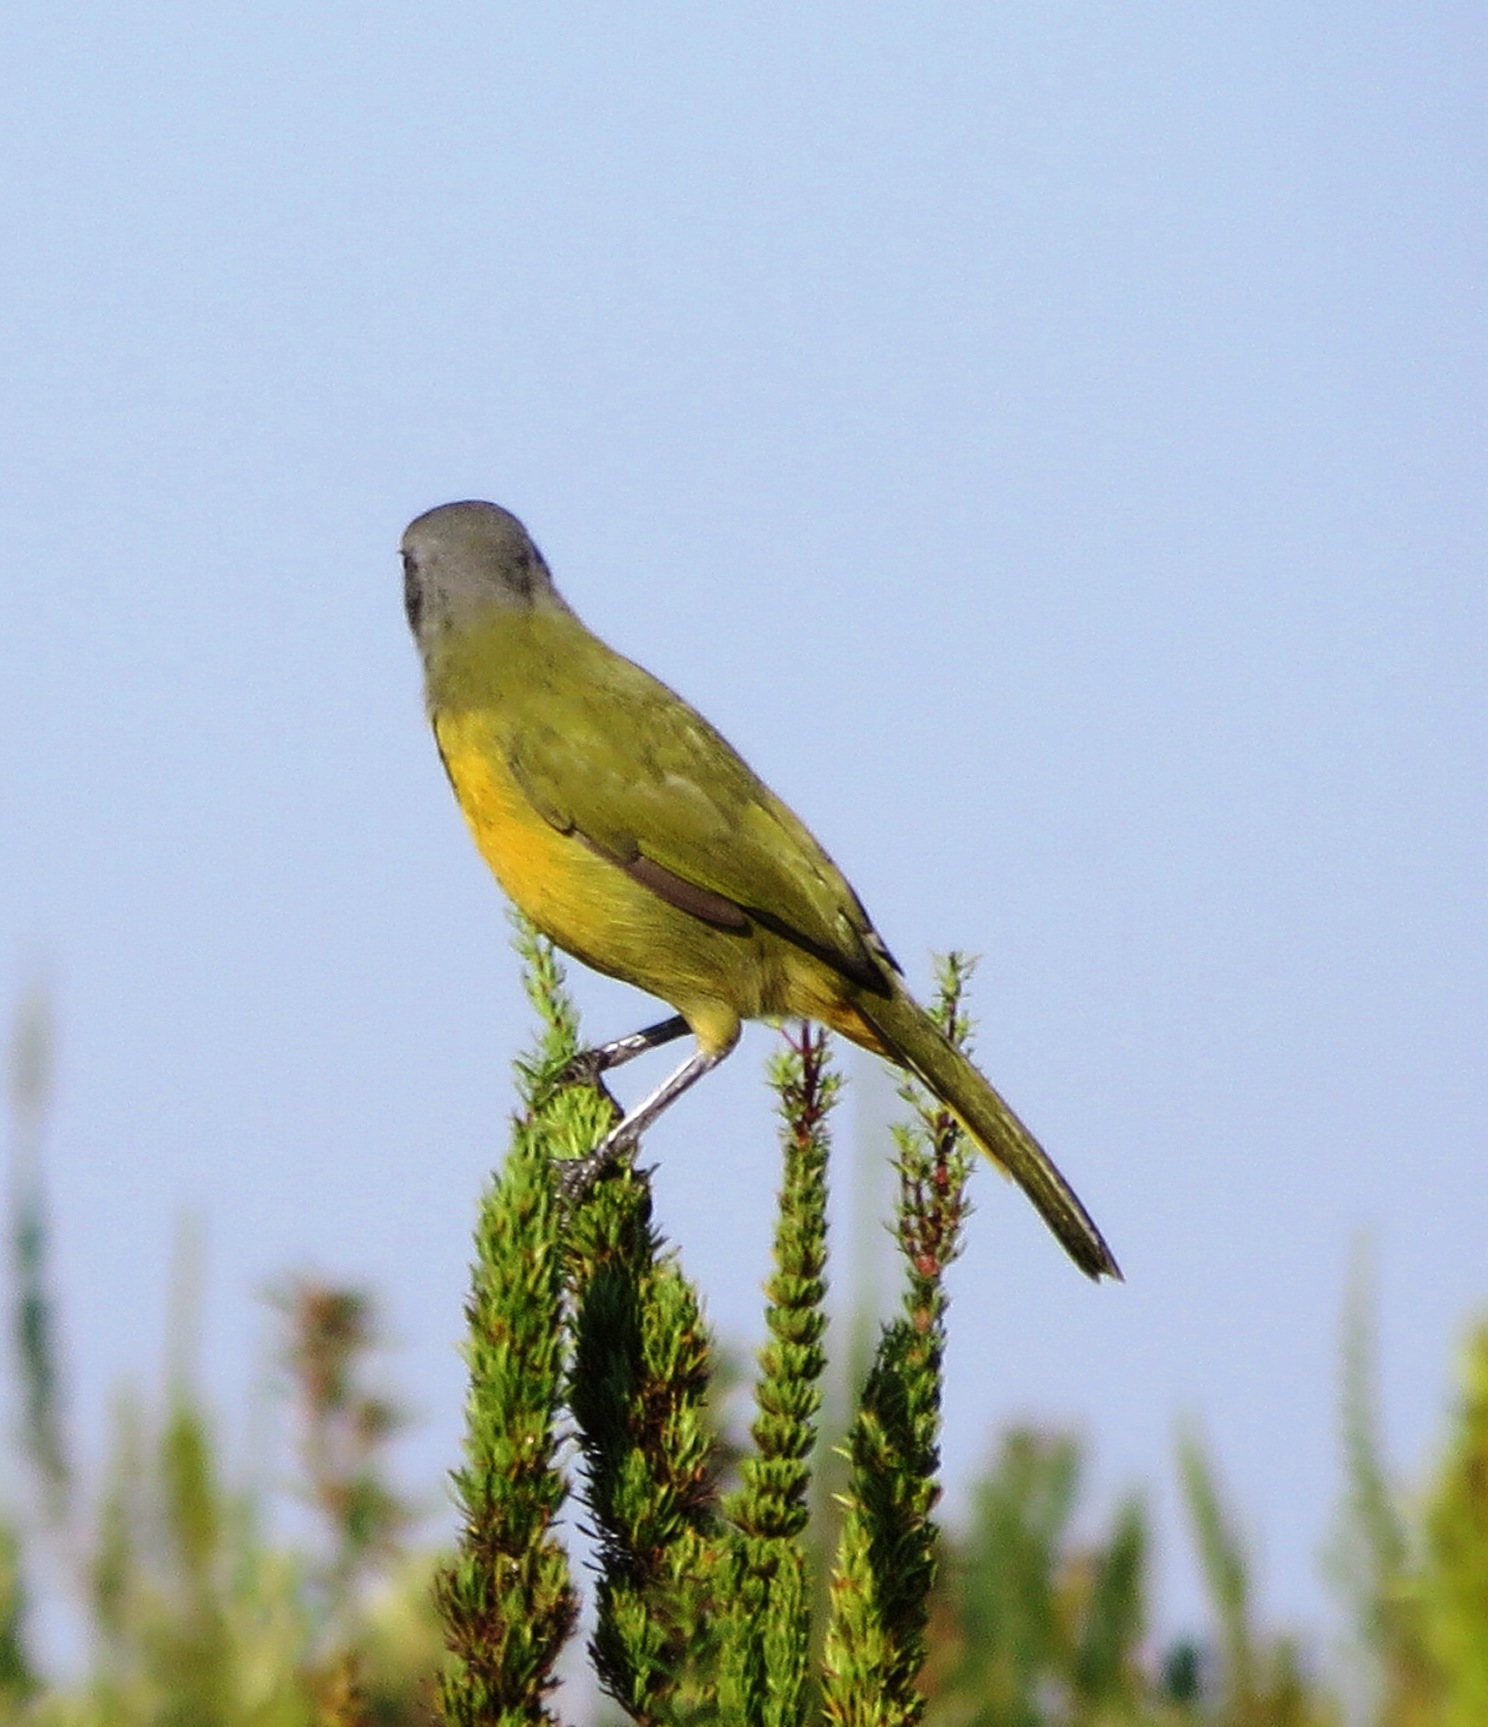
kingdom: Animalia
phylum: Chordata
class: Aves
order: Passeriformes
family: Malaconotidae
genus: Telophorus
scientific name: Telophorus zeylonus
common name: Bokmakierie
